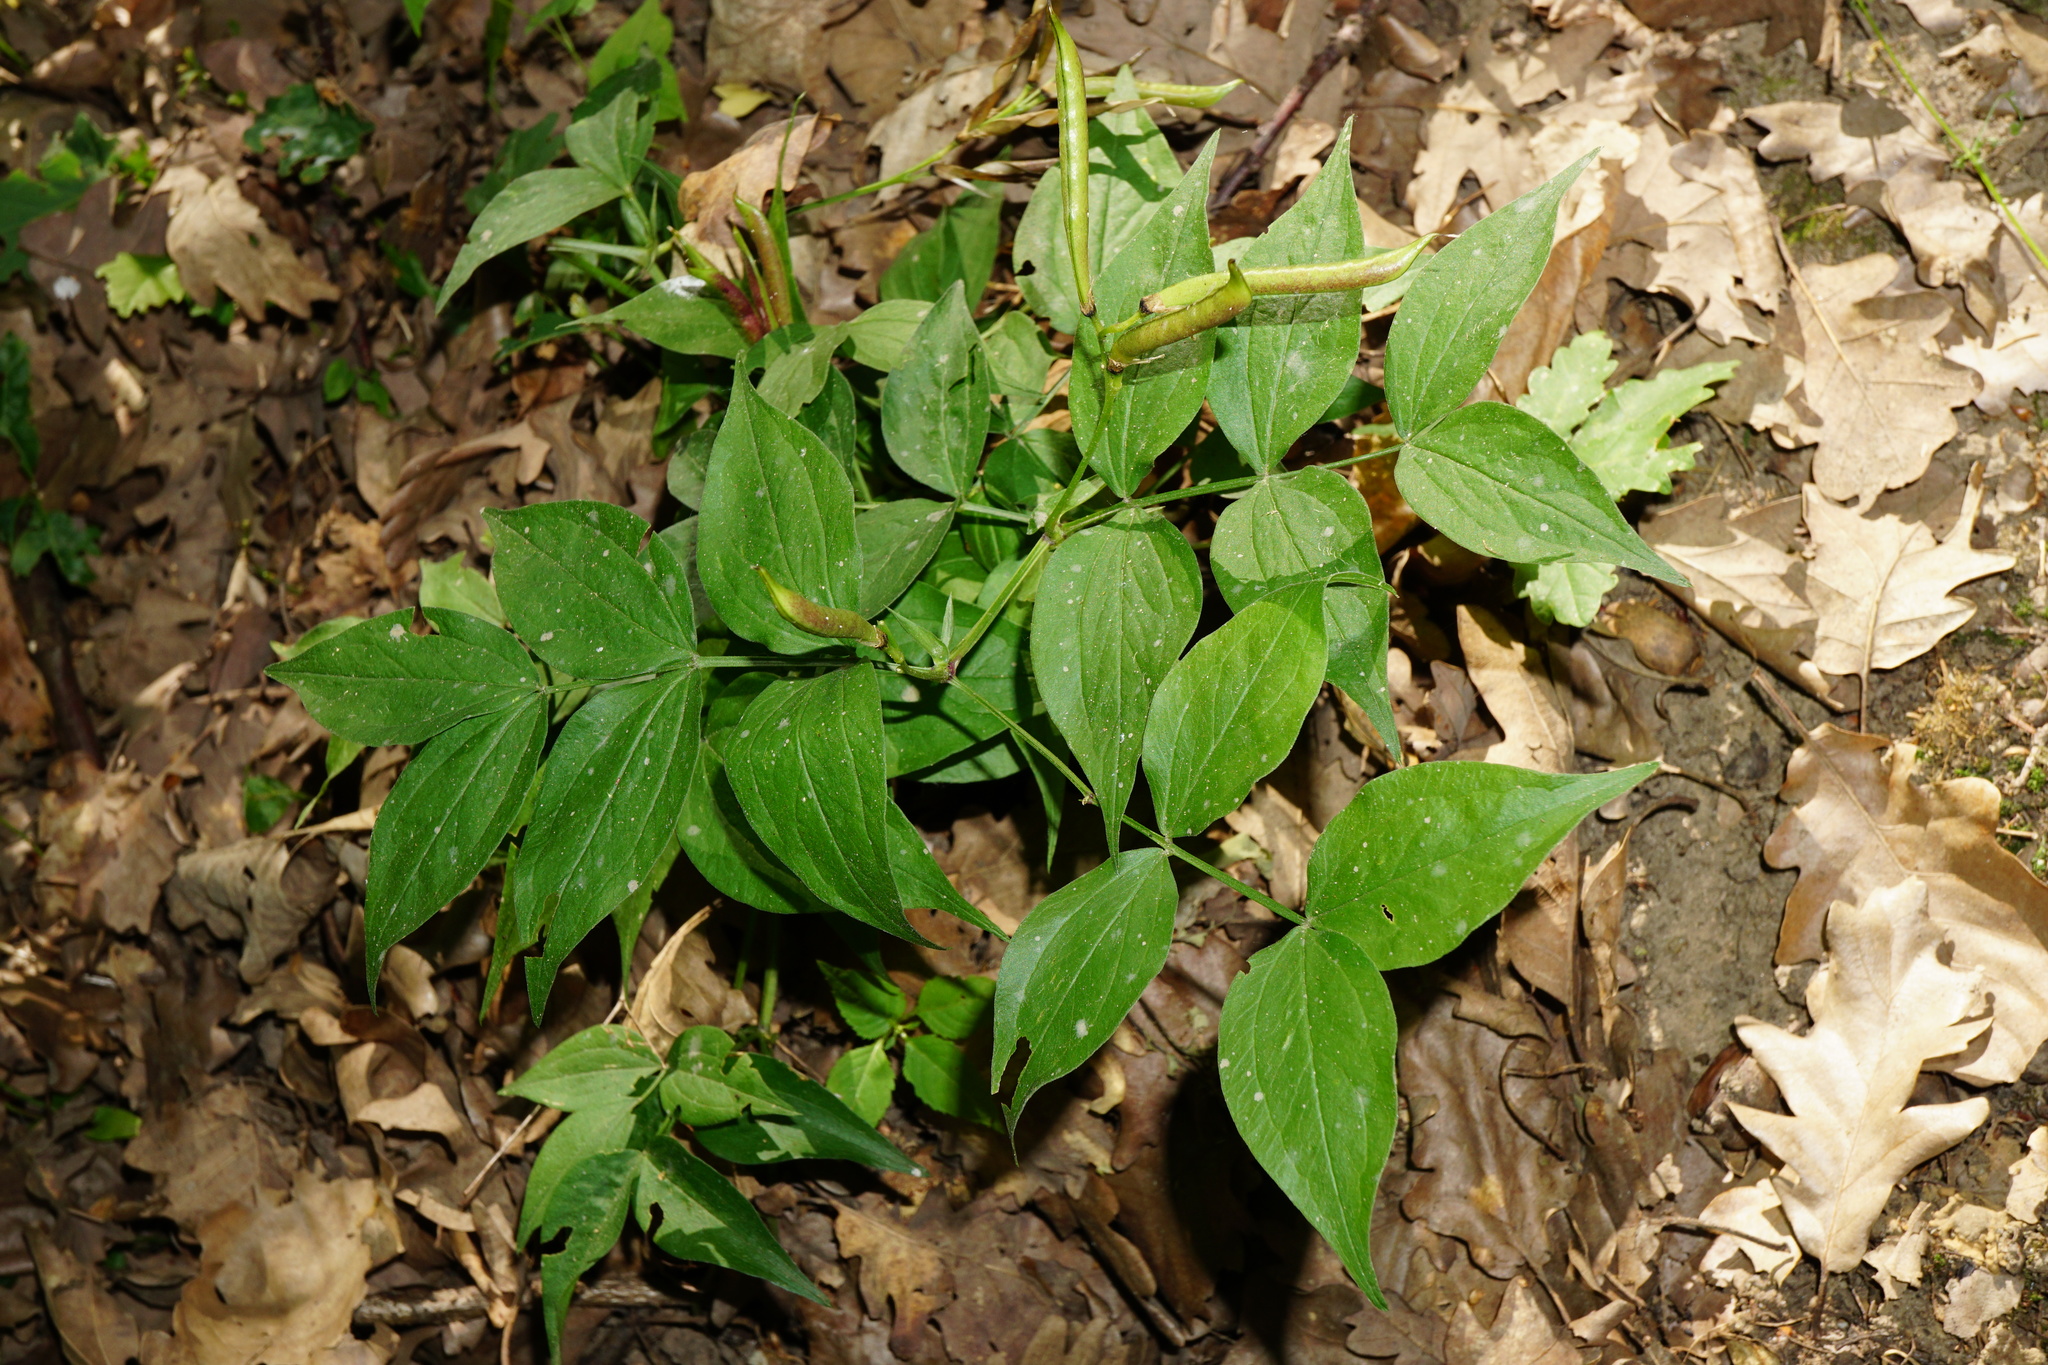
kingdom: Plantae
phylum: Tracheophyta
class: Magnoliopsida
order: Fabales
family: Fabaceae
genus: Lathyrus
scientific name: Lathyrus vernus
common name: Spring pea
